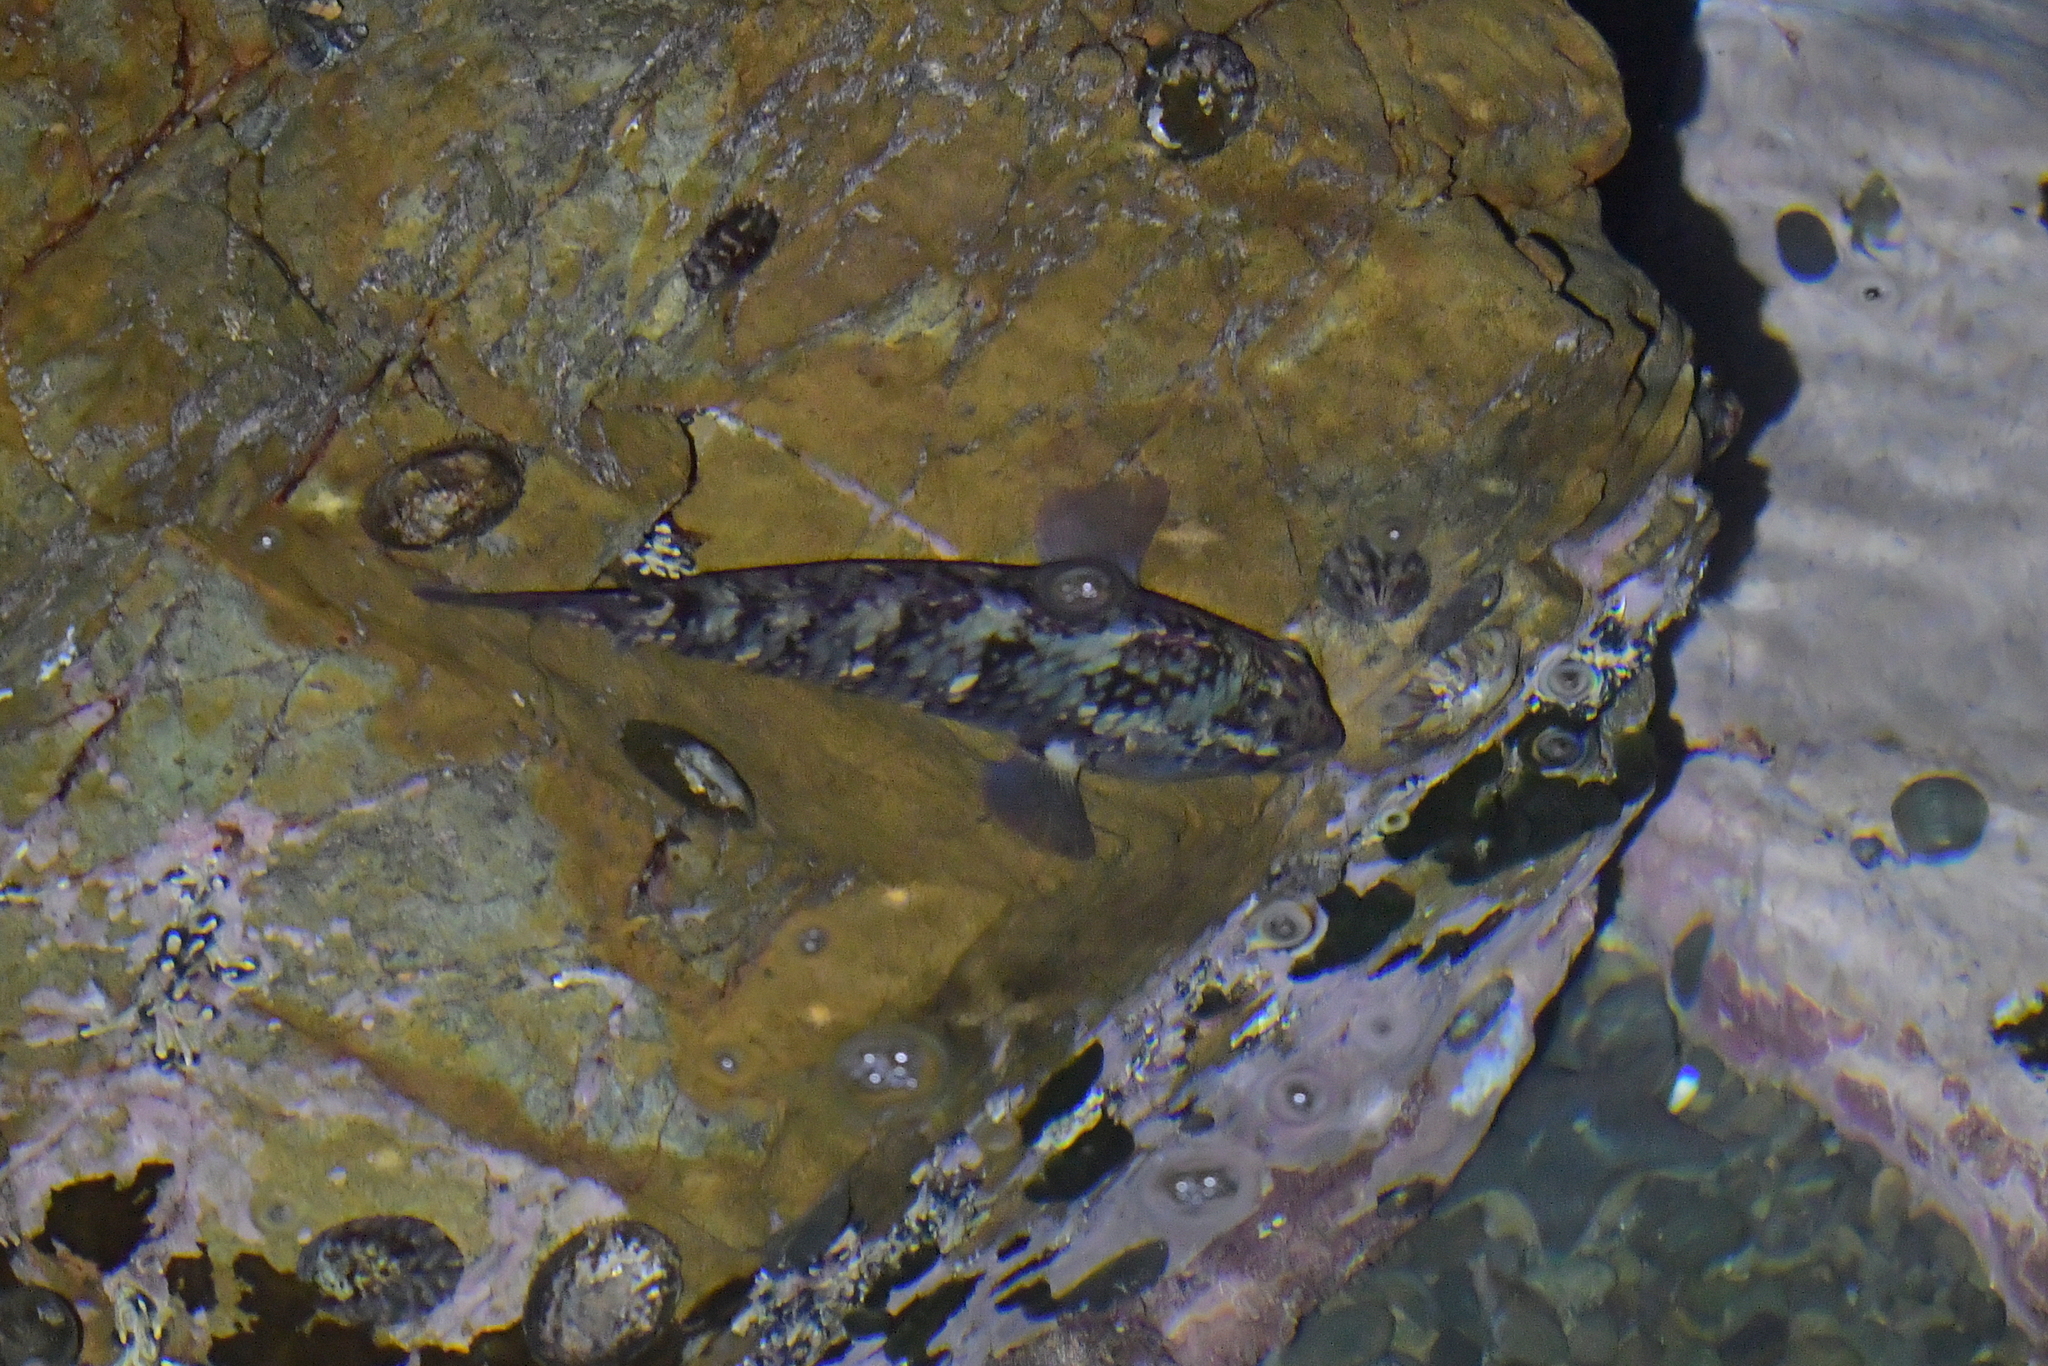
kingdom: Animalia
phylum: Chordata
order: Perciformes
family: Labridae
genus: Notolabrus
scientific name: Notolabrus fucicola
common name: Banded parrotfish
